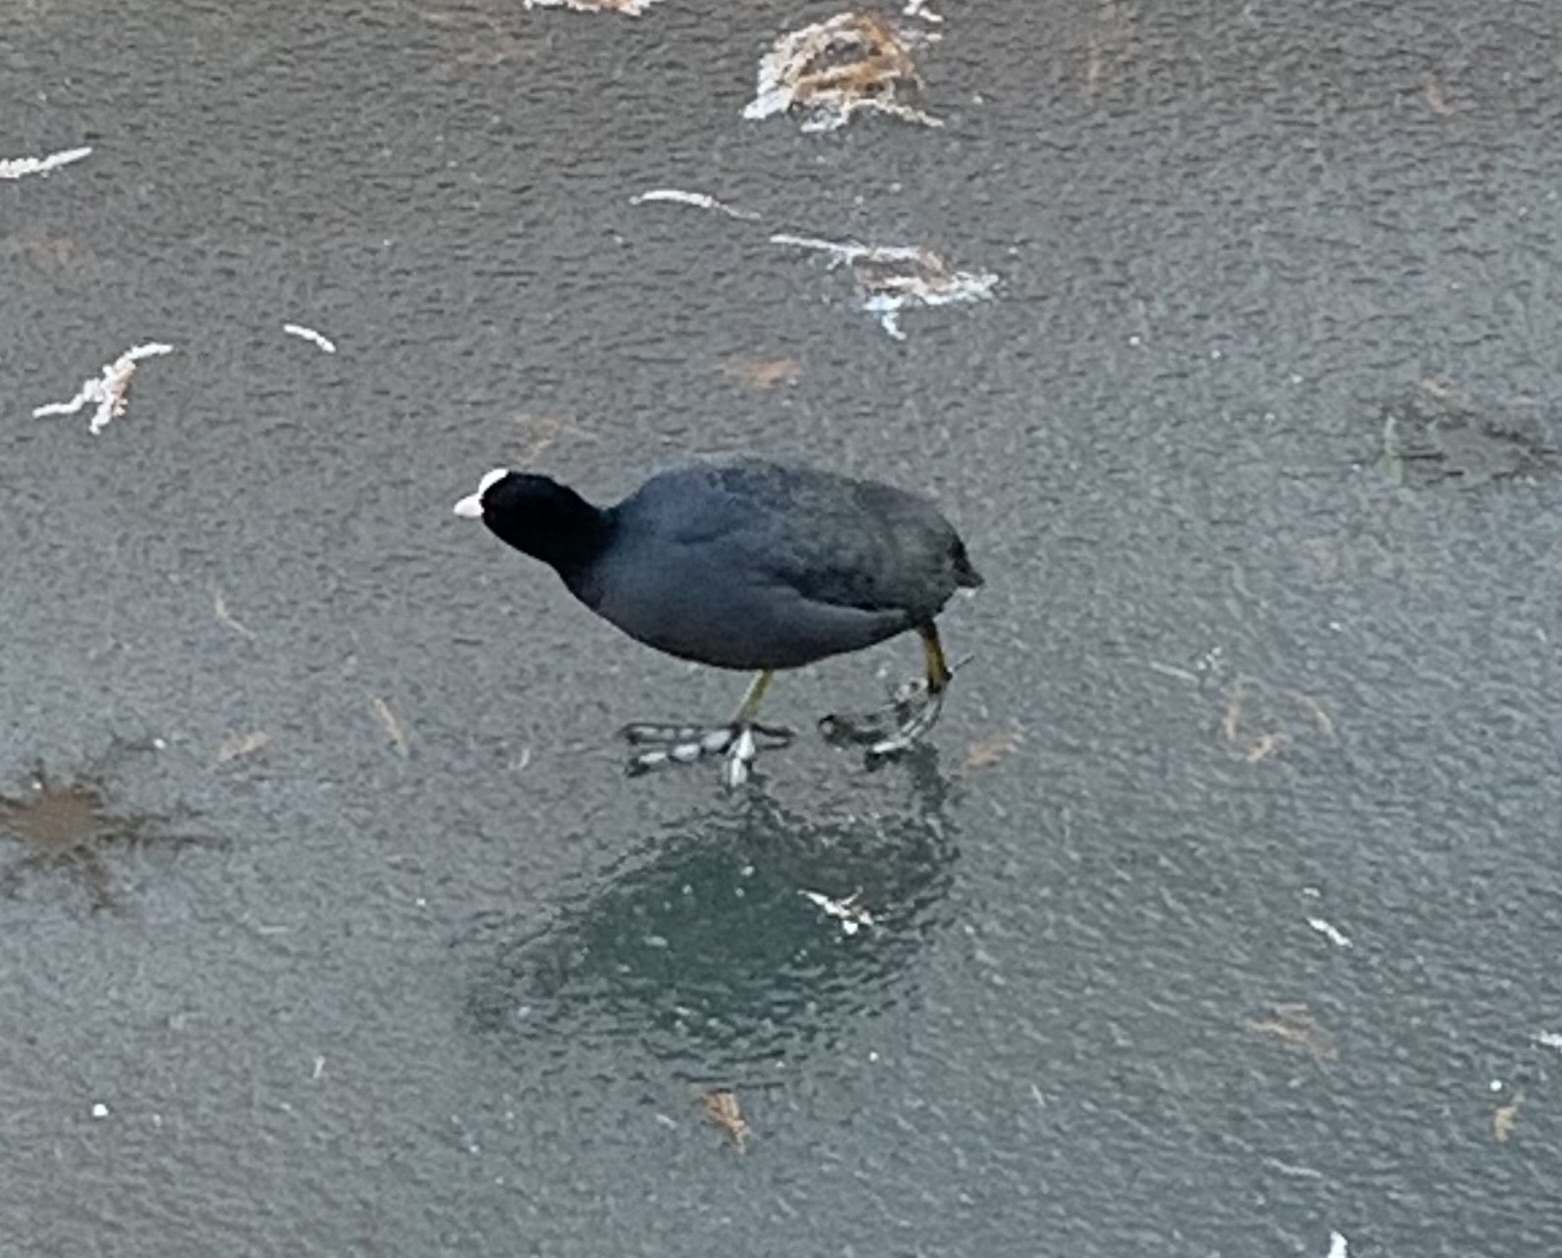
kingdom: Animalia
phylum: Chordata
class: Aves
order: Gruiformes
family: Rallidae
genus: Fulica
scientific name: Fulica atra
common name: Eurasian coot
